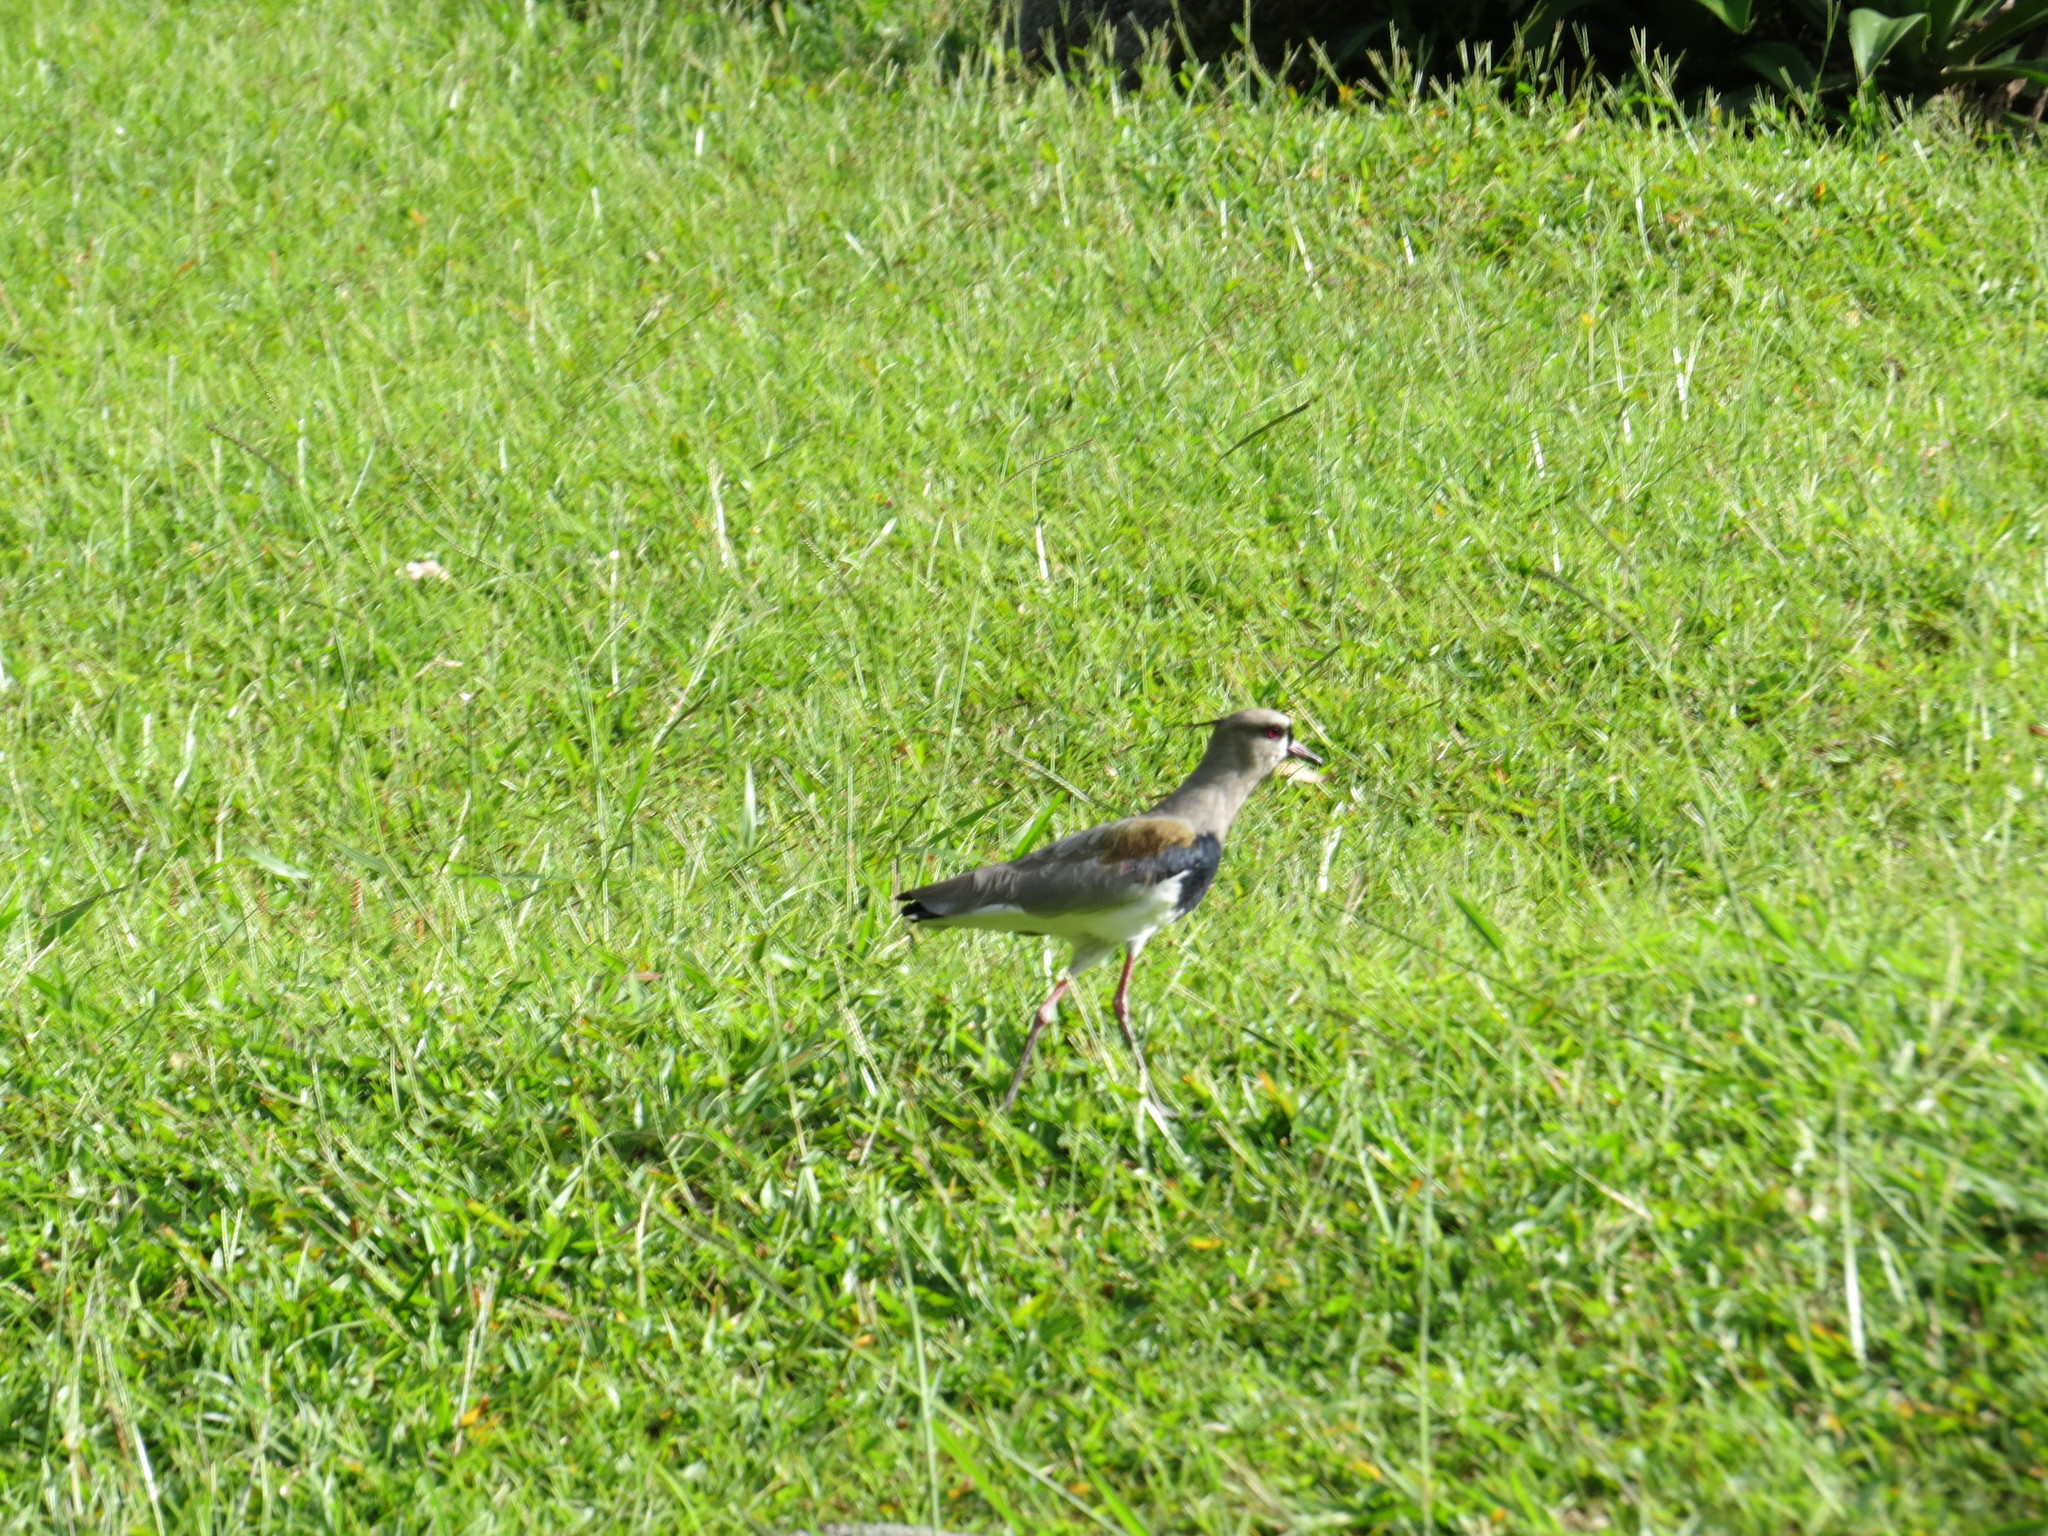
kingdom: Animalia
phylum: Chordata
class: Aves
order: Charadriiformes
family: Charadriidae
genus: Vanellus
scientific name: Vanellus chilensis
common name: Southern lapwing
